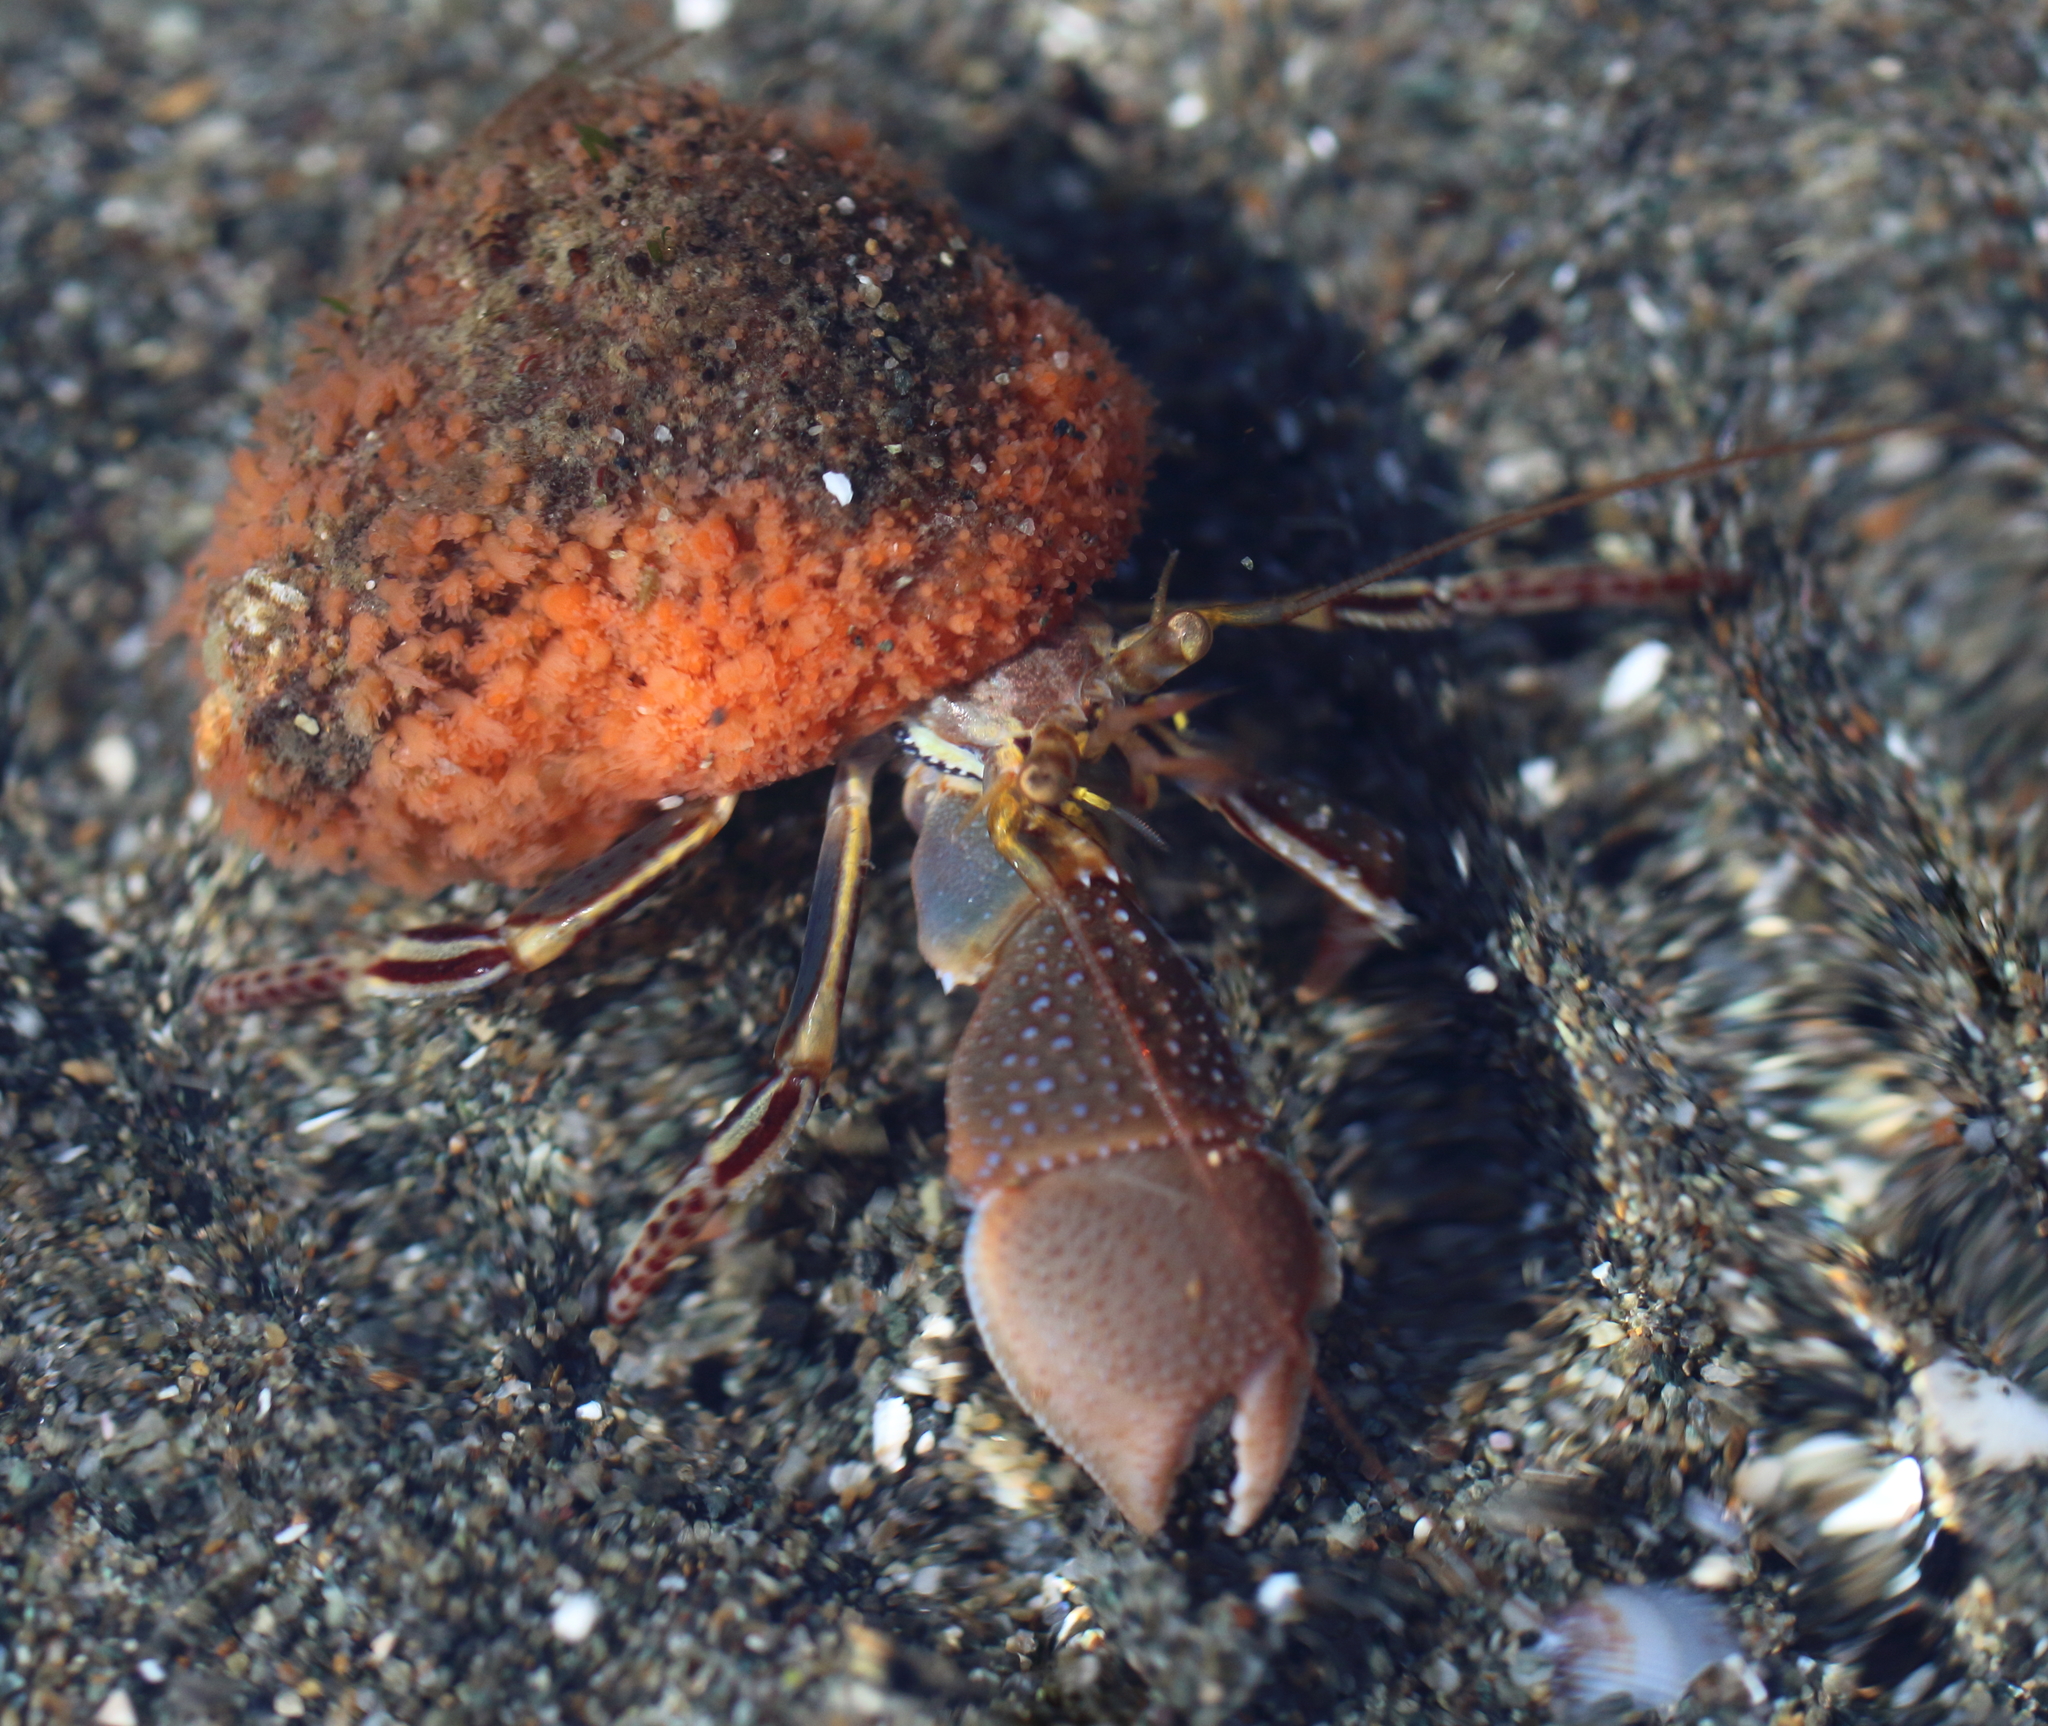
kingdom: Animalia
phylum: Arthropoda
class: Malacostraca
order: Decapoda
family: Paguridae
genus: Elassochirus
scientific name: Elassochirus tenuimanus
